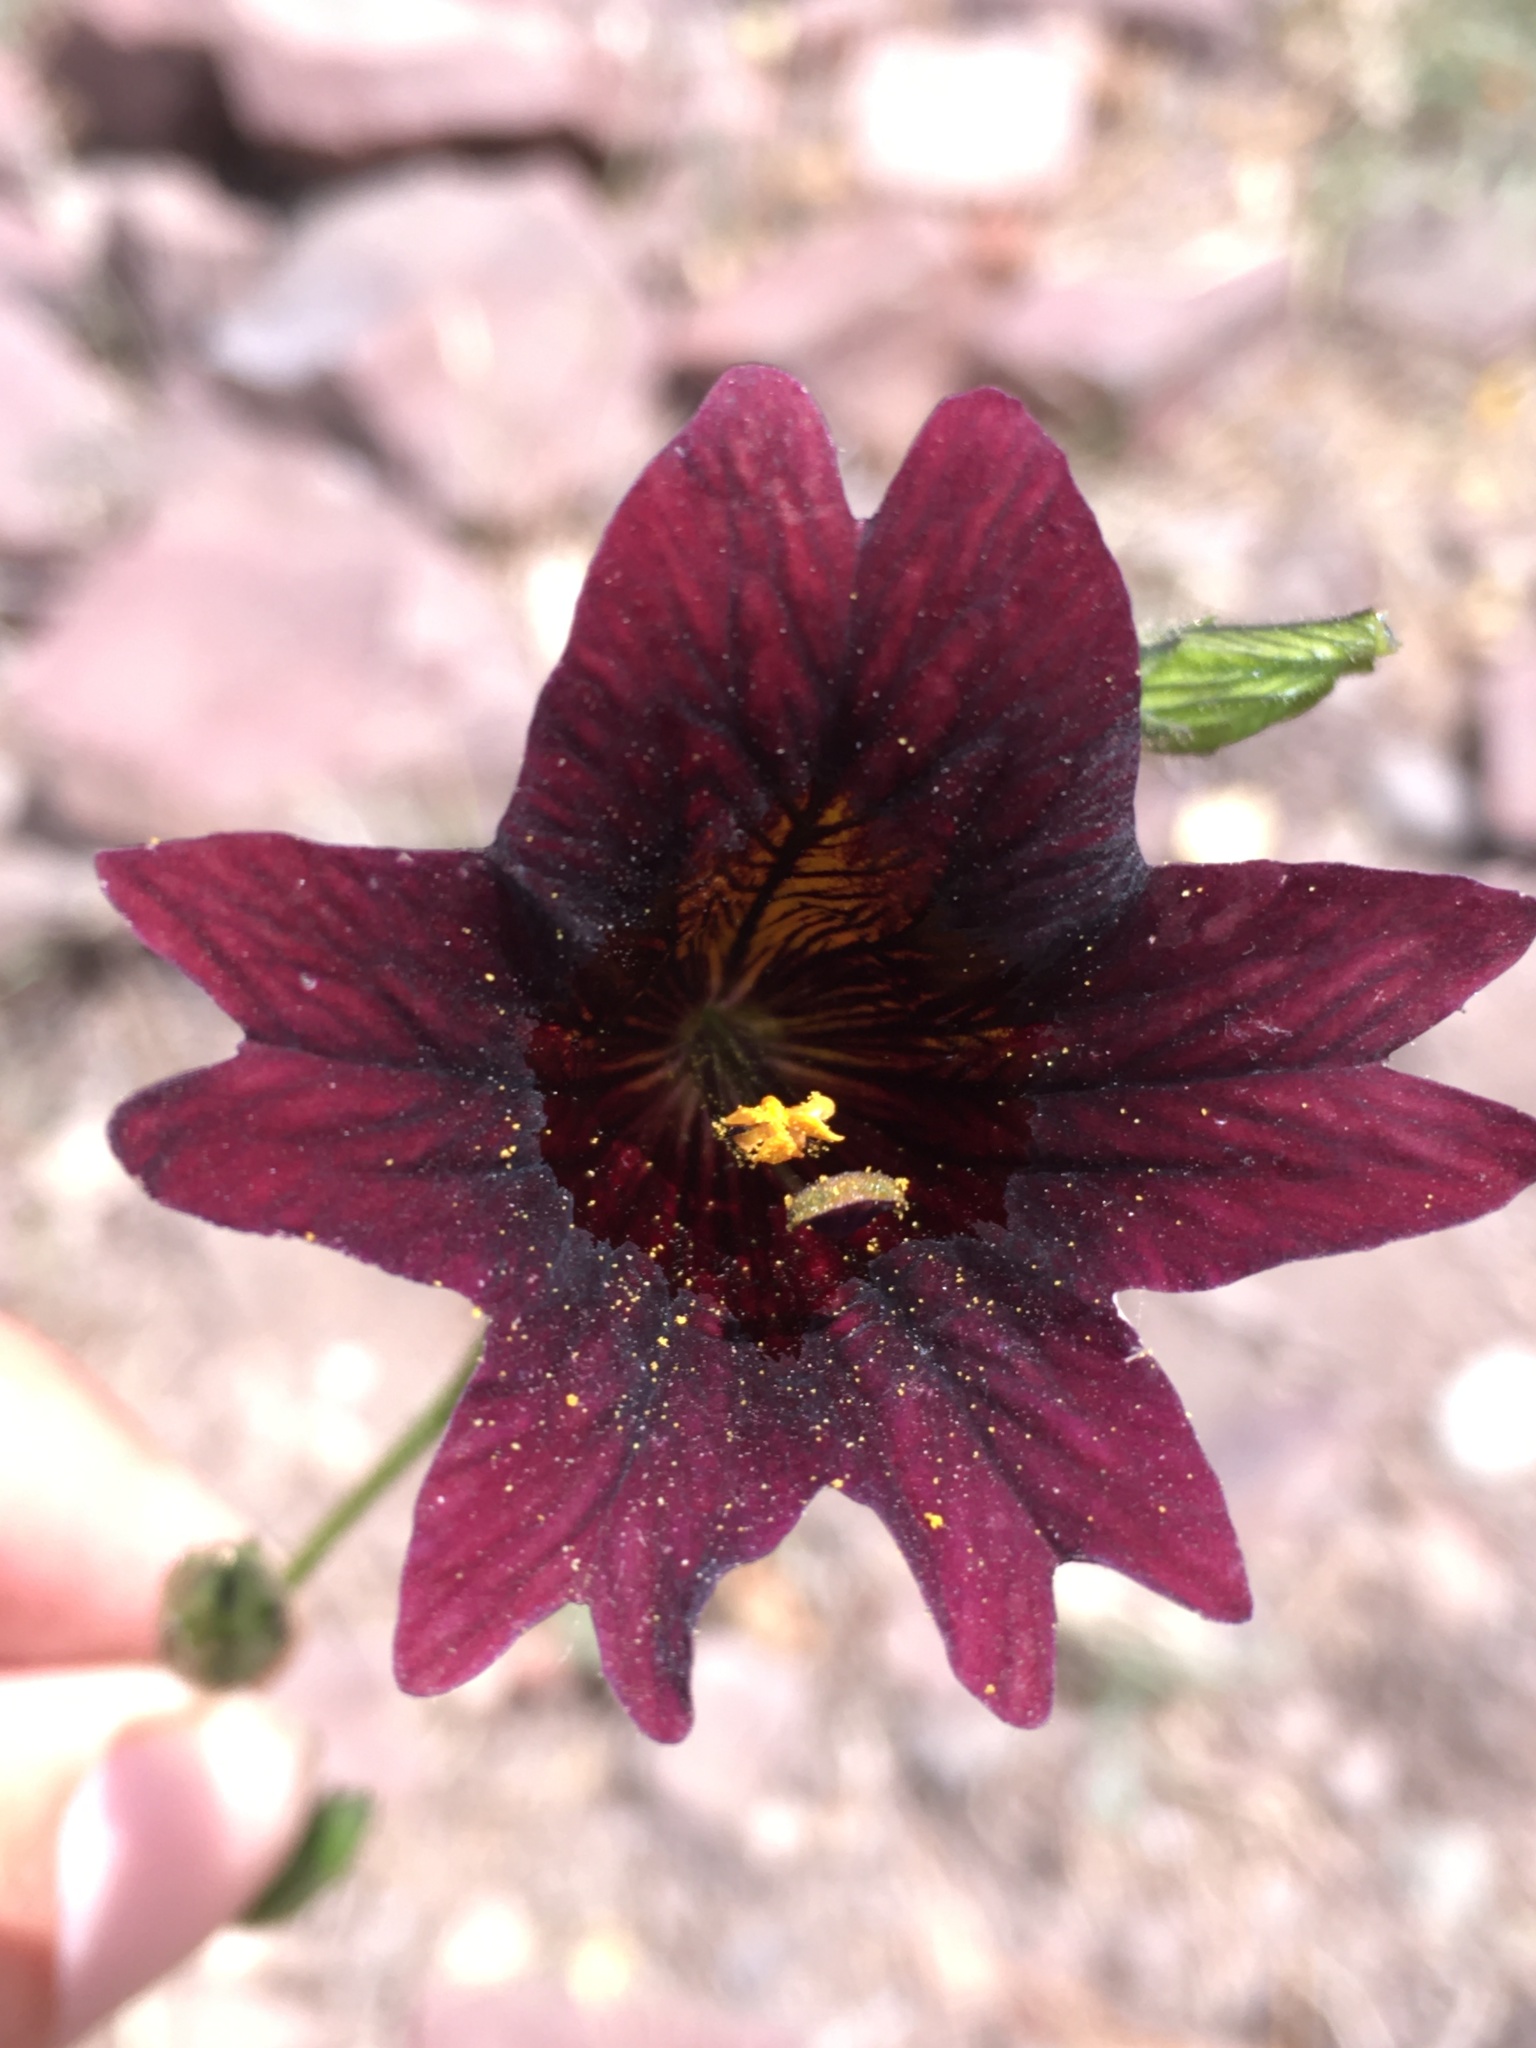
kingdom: Plantae
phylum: Tracheophyta
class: Magnoliopsida
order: Solanales
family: Solanaceae
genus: Salpiglossis
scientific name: Salpiglossis sinuata
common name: Painted-tongue
